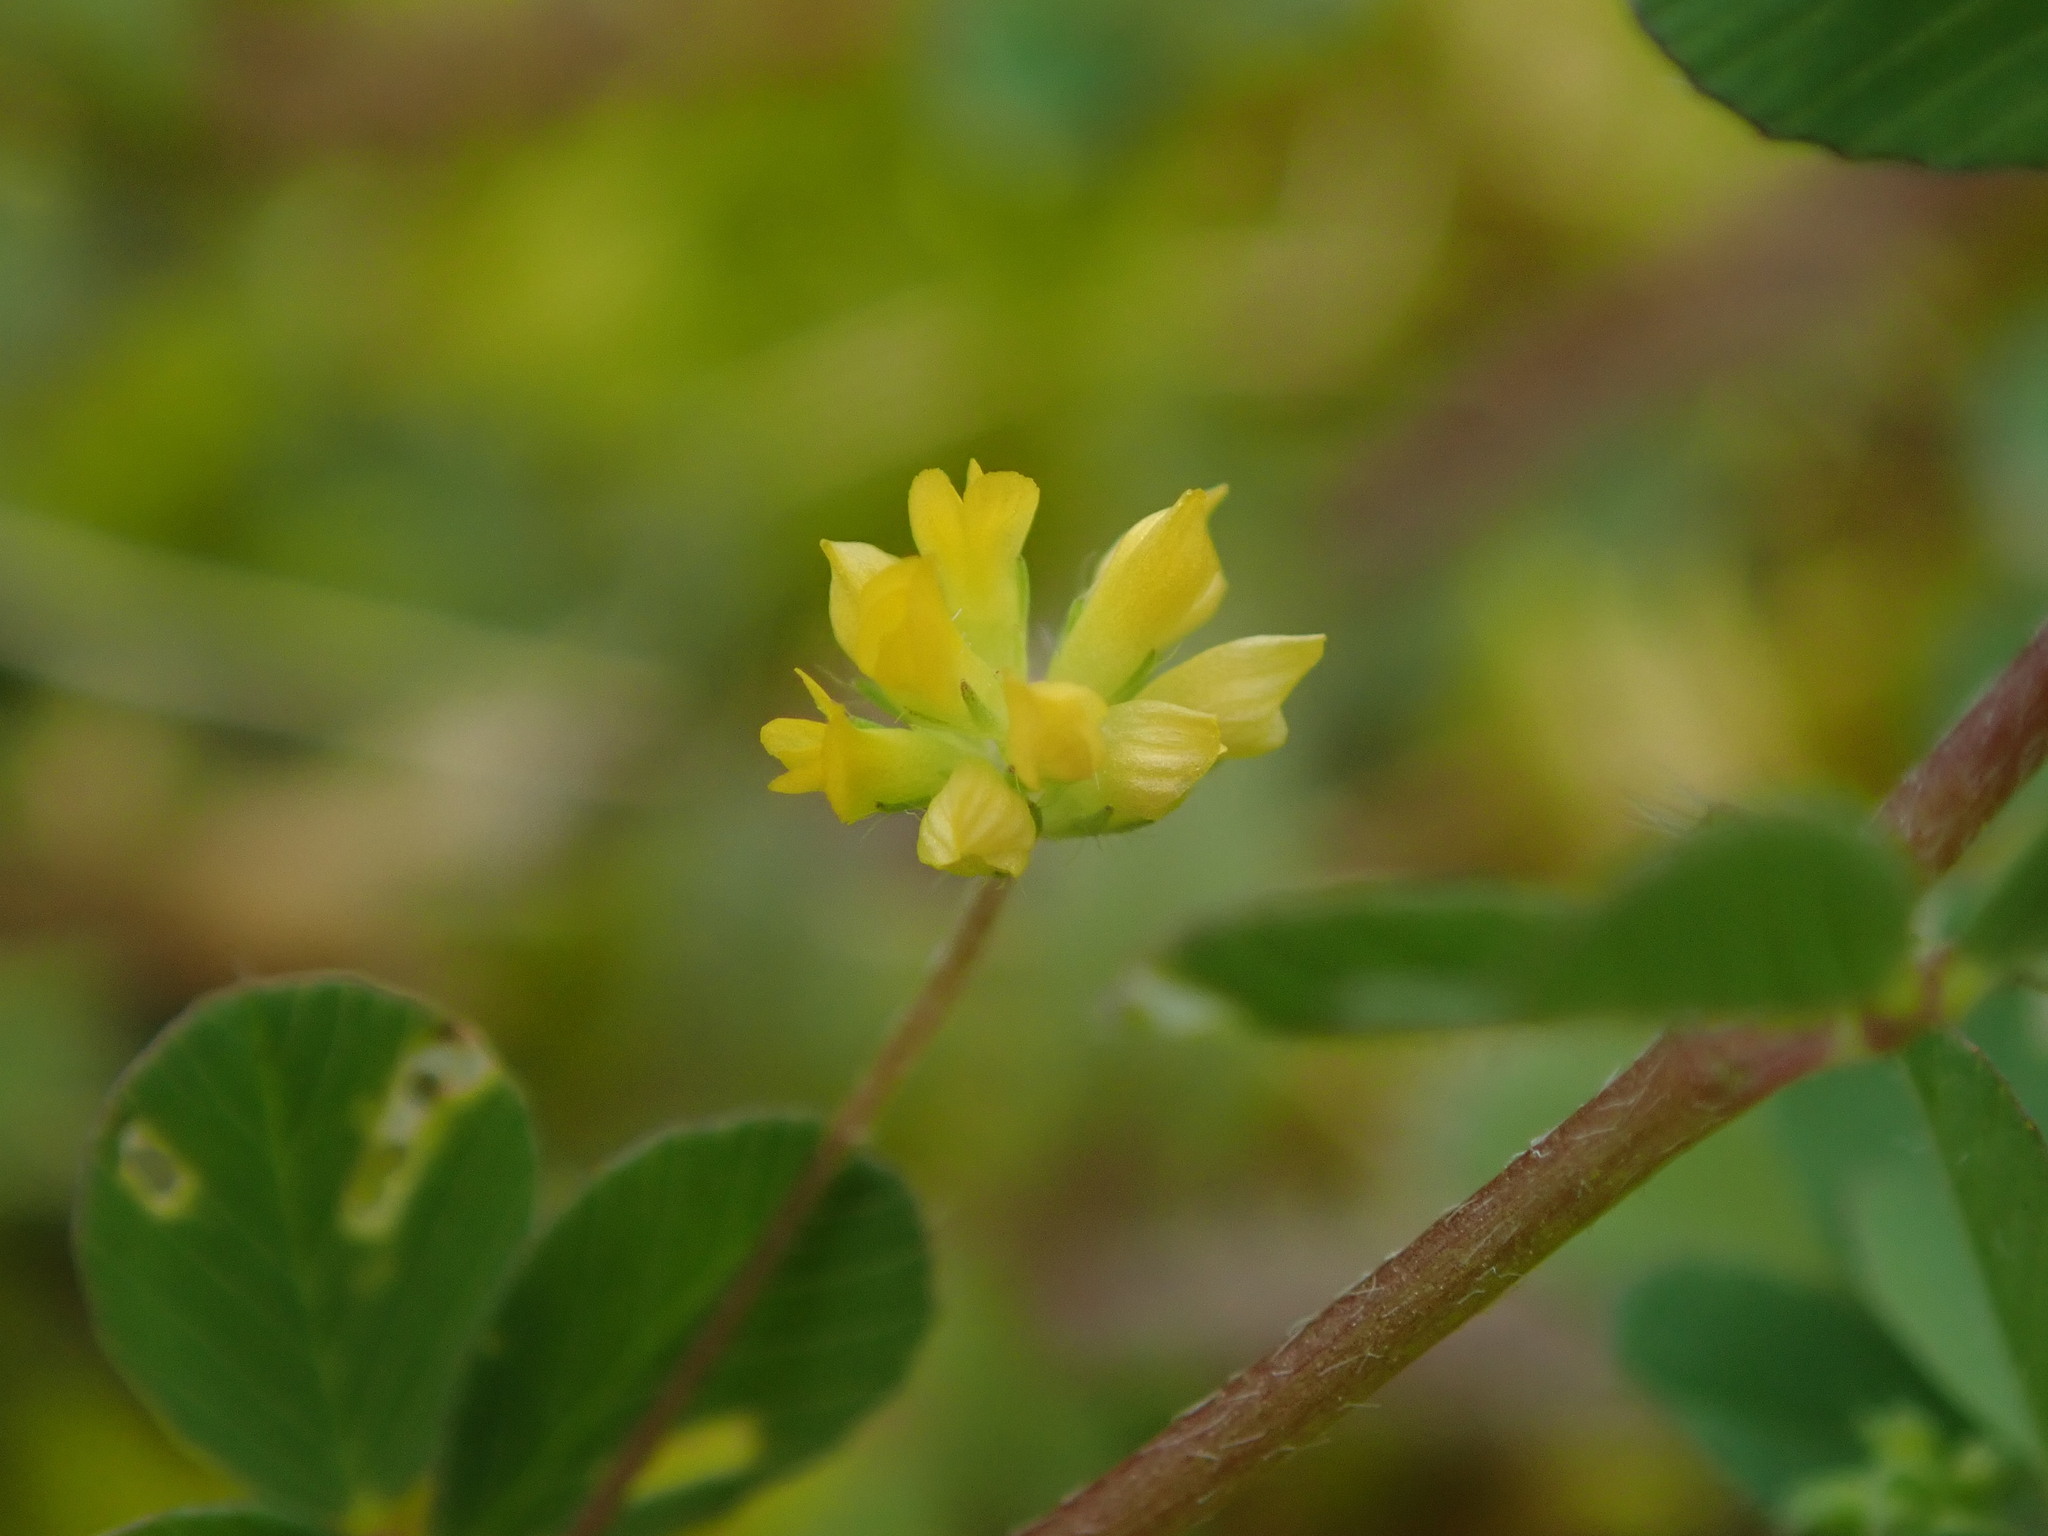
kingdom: Plantae
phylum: Tracheophyta
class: Magnoliopsida
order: Fabales
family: Fabaceae
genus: Trifolium
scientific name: Trifolium dubium
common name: Suckling clover
